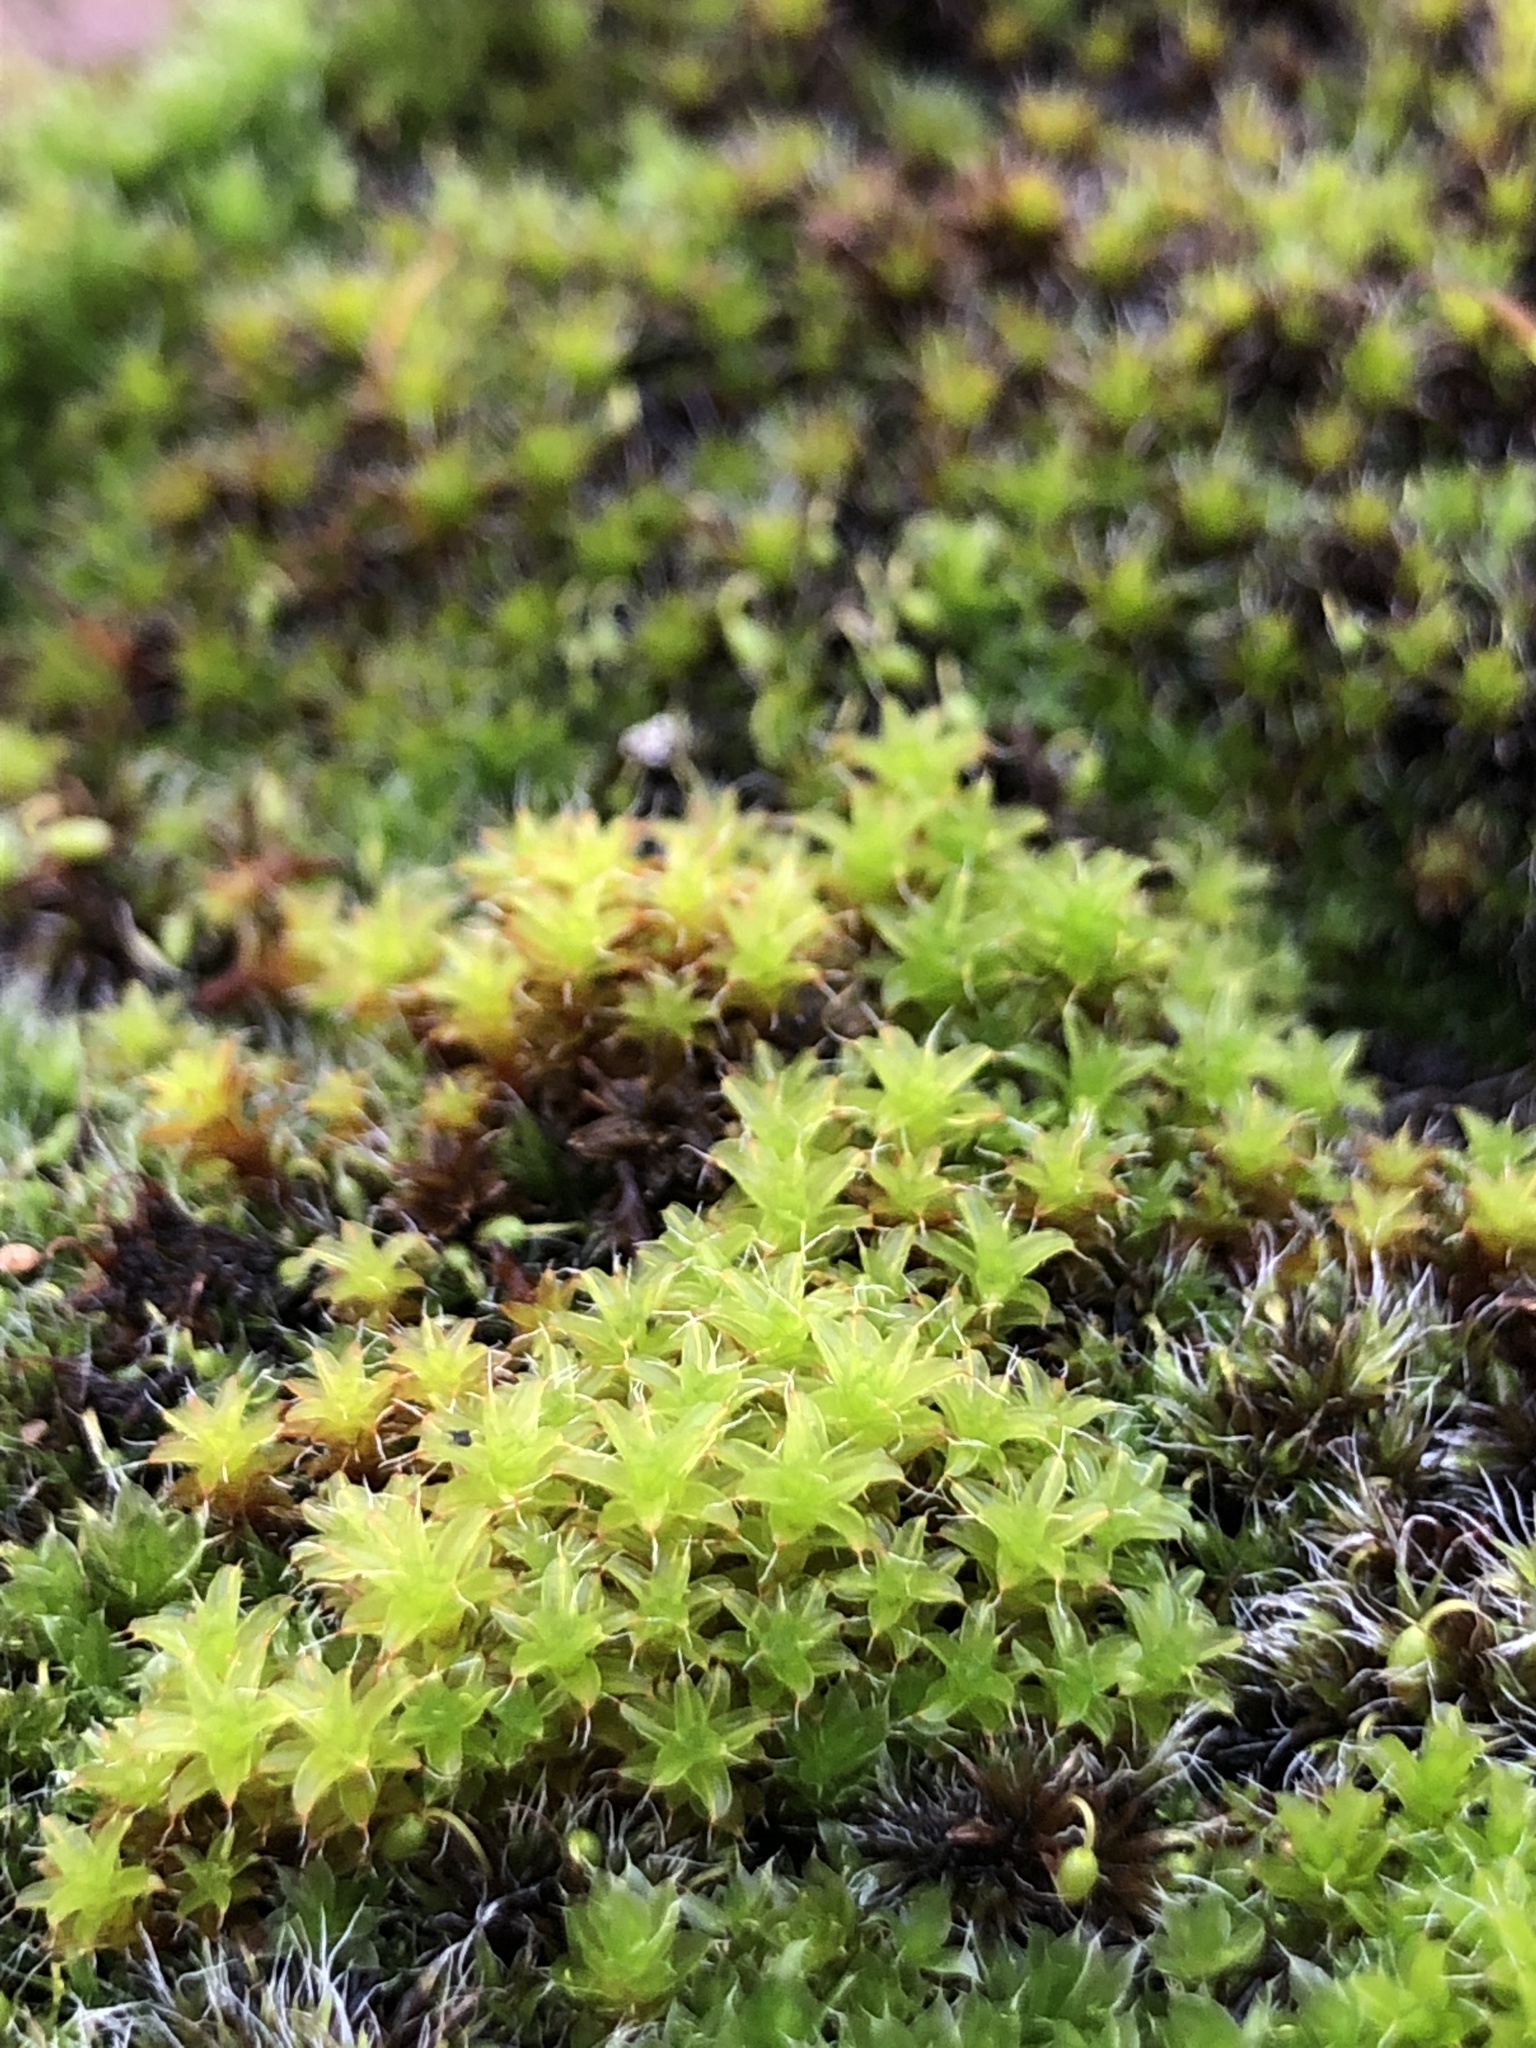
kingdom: Plantae
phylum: Bryophyta
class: Bryopsida
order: Pottiales
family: Pottiaceae
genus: Syntrichia
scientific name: Syntrichia ruralis
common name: Sidewalk screw moss
